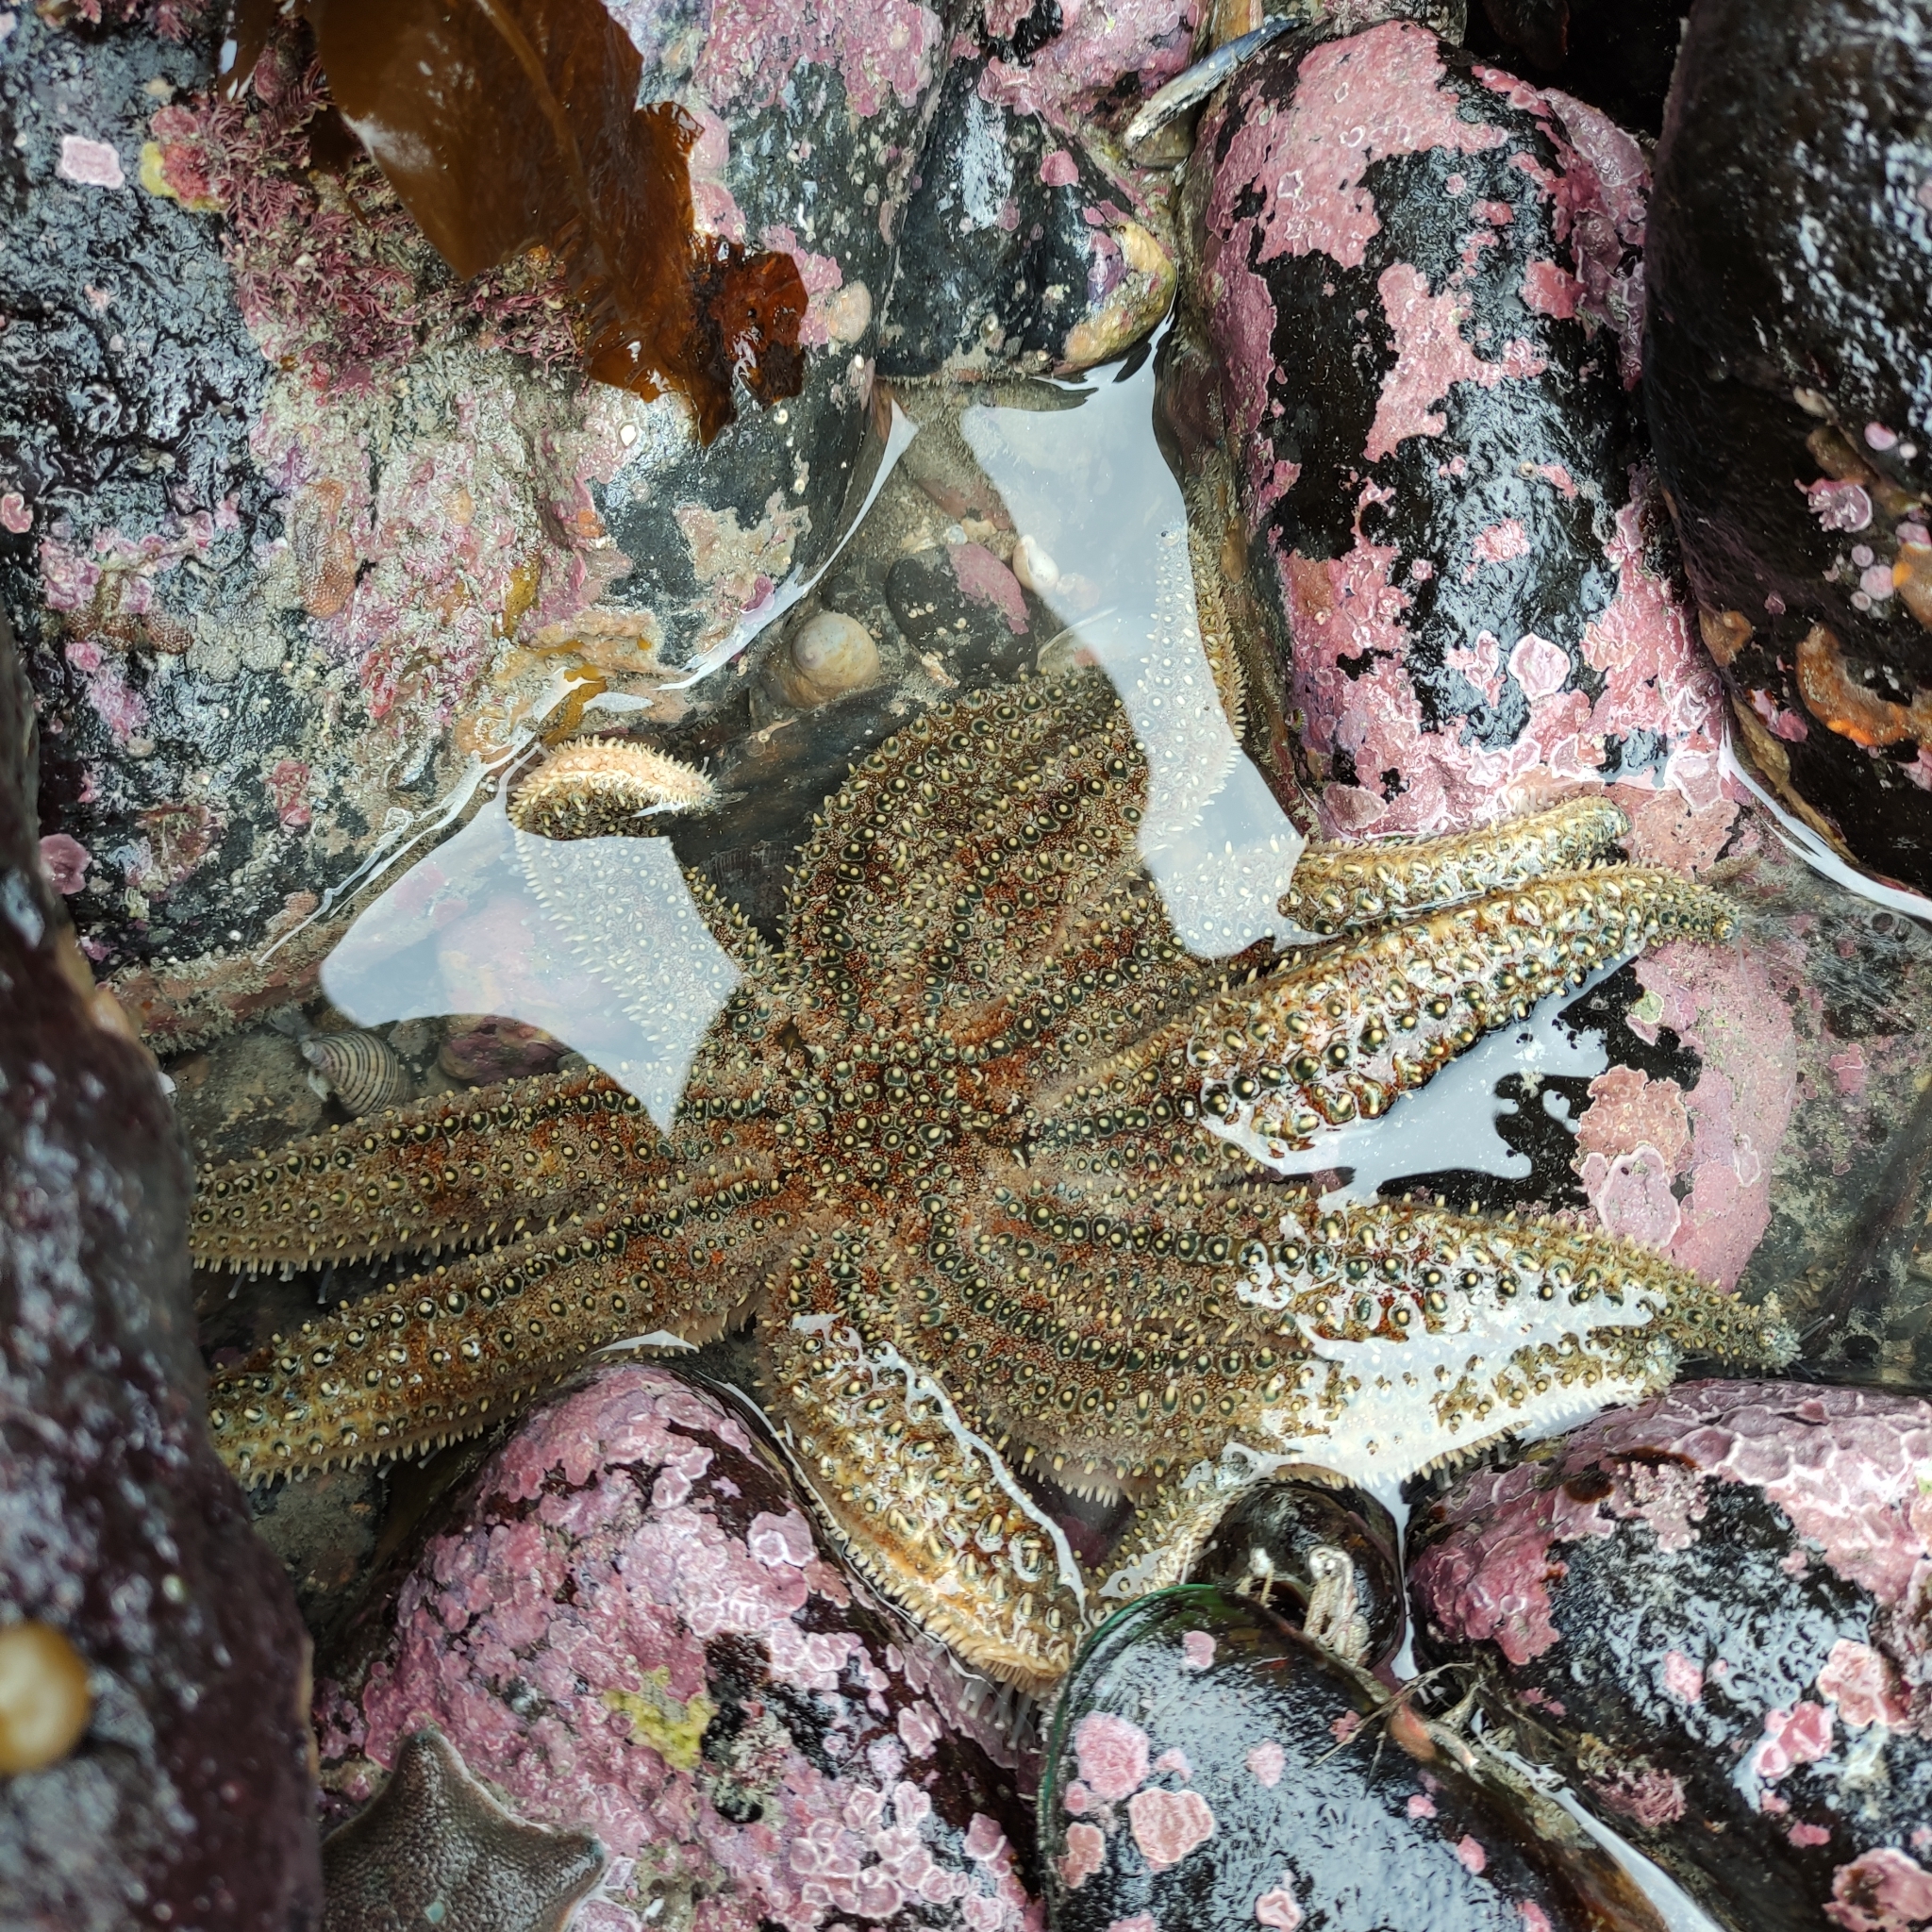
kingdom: Animalia
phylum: Echinodermata
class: Asteroidea
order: Forcipulatida
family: Asteriidae
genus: Coscinasterias
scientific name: Coscinasterias muricata
